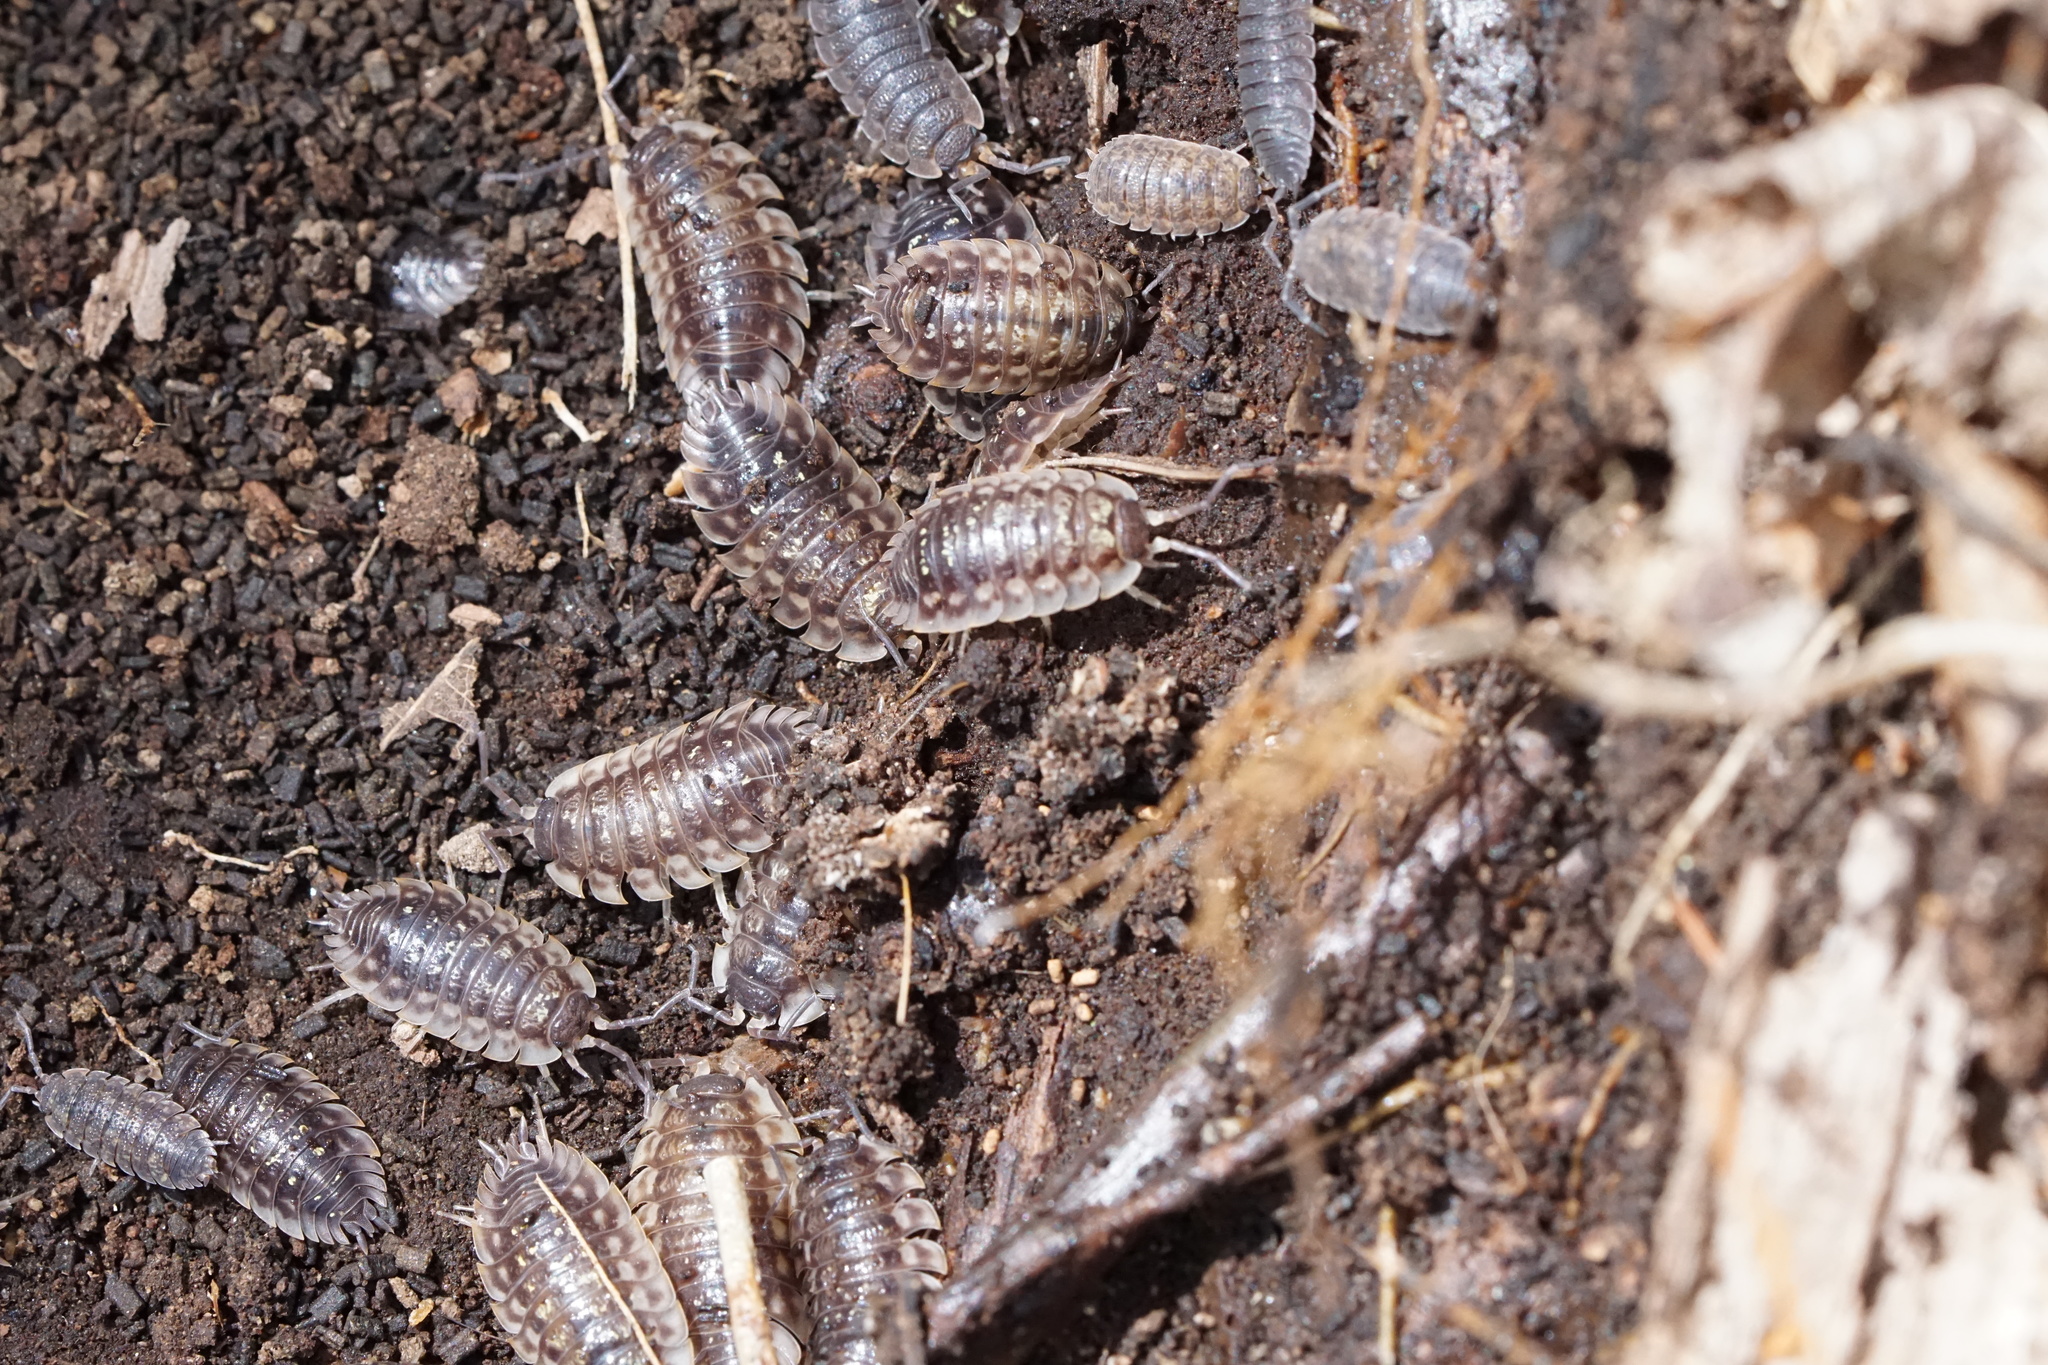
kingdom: Animalia
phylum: Arthropoda
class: Malacostraca
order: Isopoda
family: Oniscidae
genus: Oniscus
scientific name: Oniscus asellus
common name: Common shiny woodlouse
